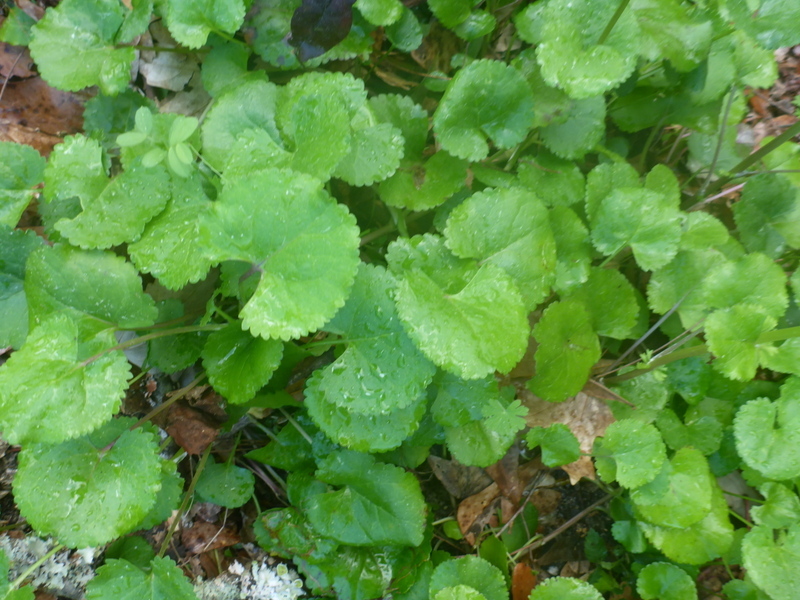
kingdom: Plantae
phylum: Tracheophyta
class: Magnoliopsida
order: Asterales
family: Asteraceae
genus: Packera
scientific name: Packera aurea
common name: Golden groundsel
